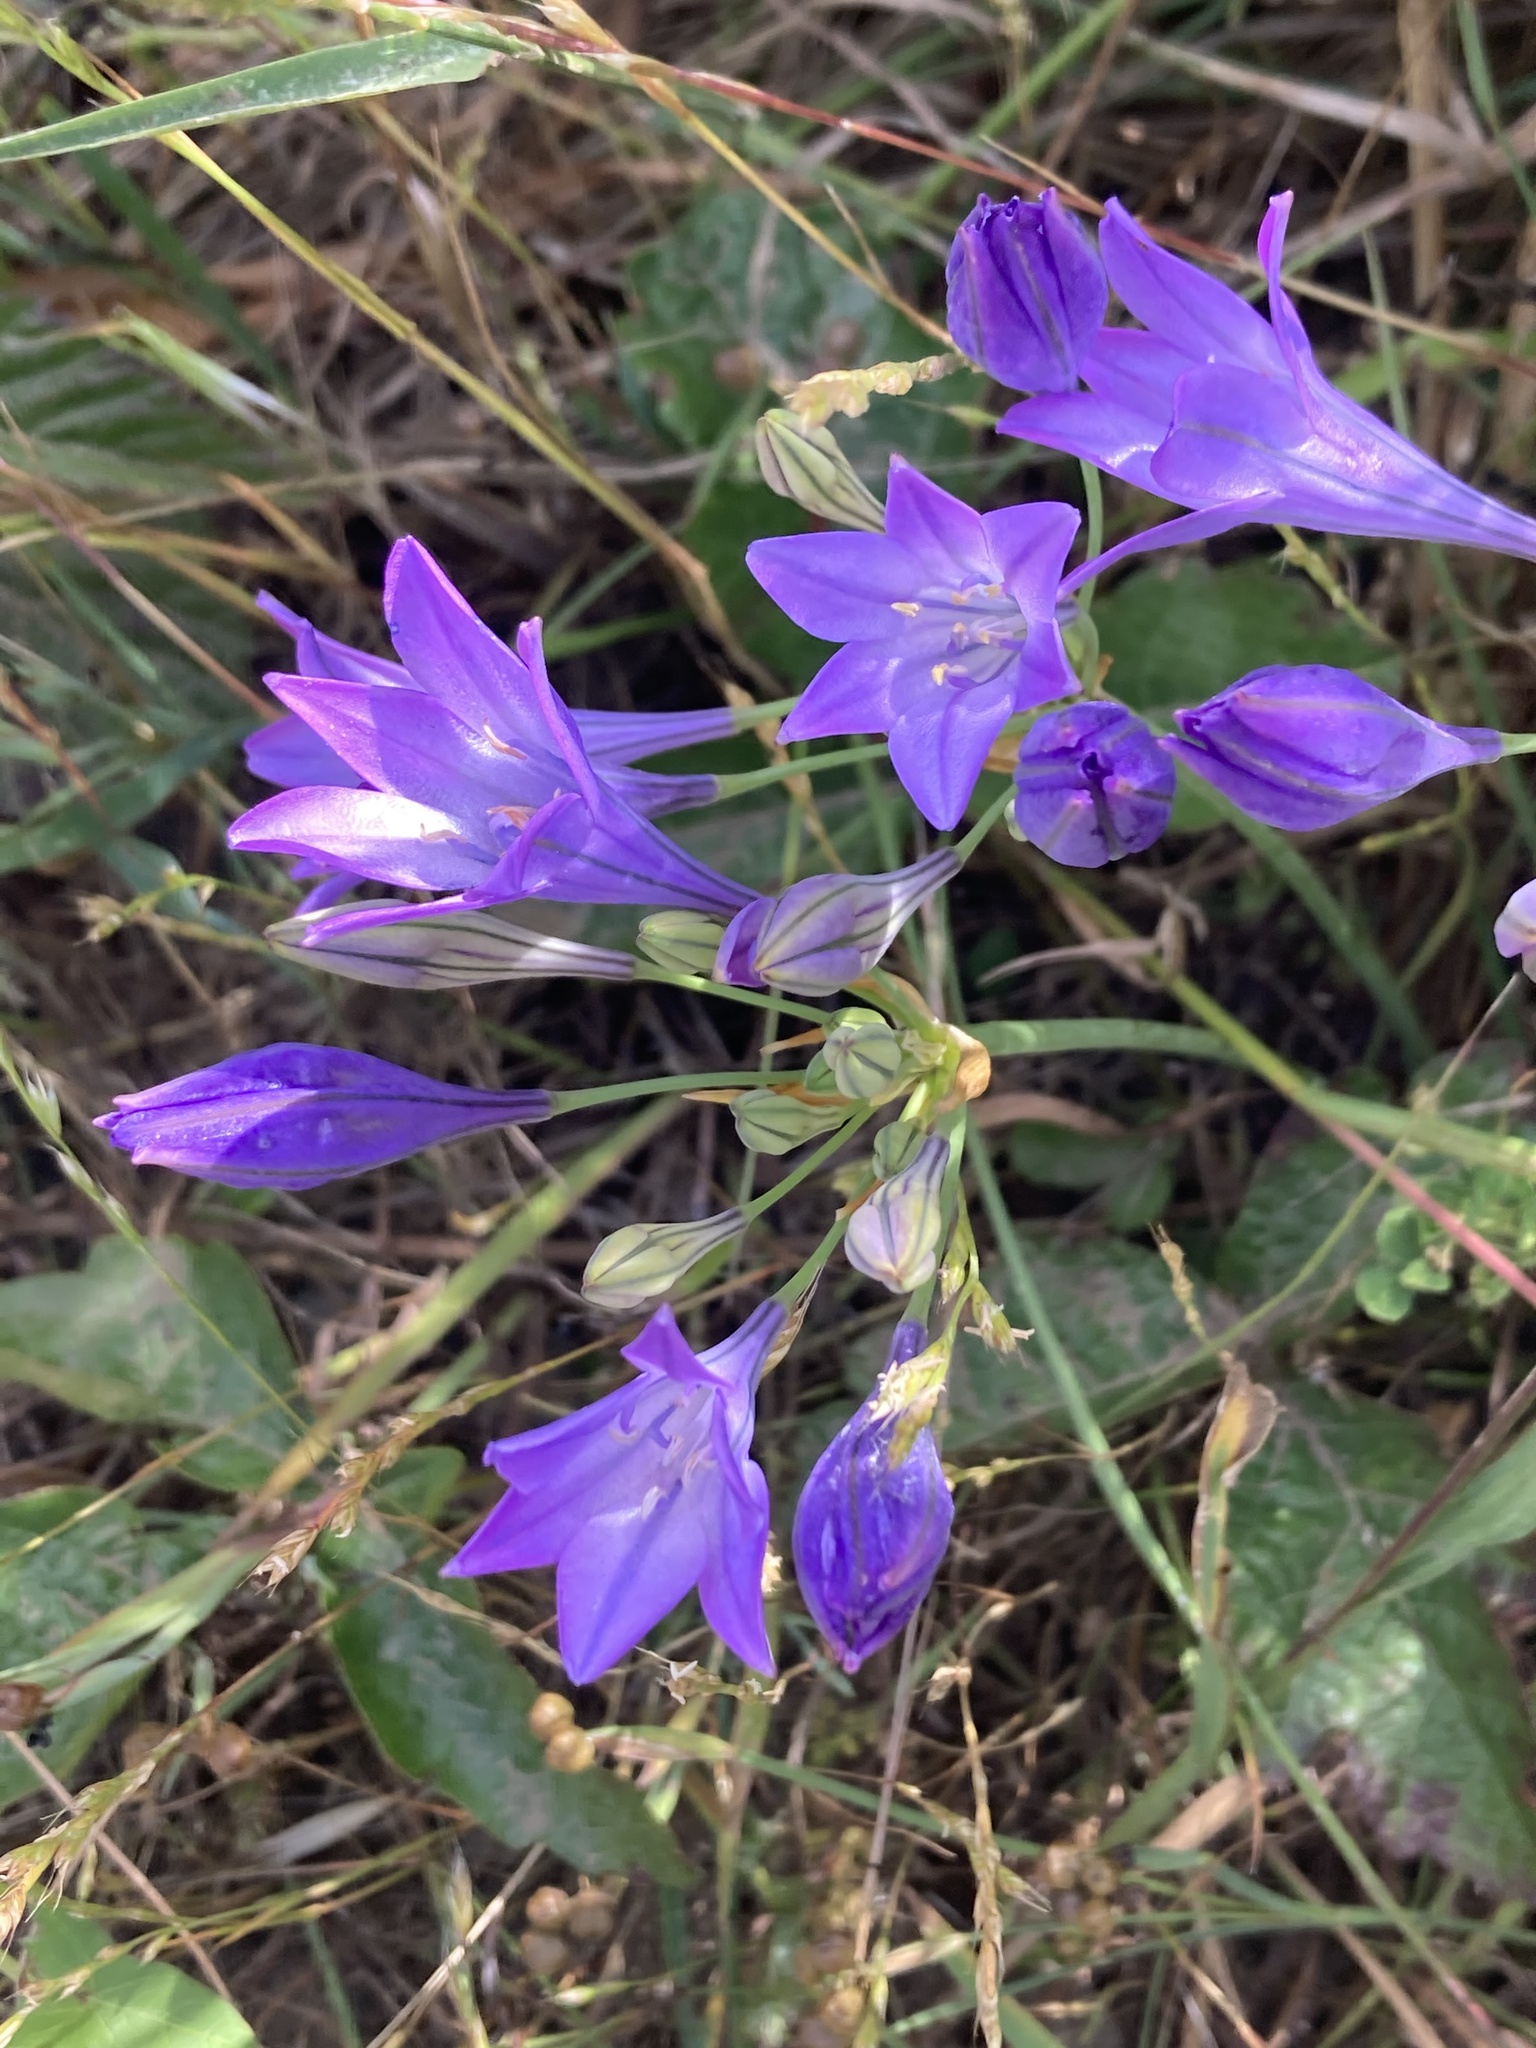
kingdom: Plantae
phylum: Tracheophyta
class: Liliopsida
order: Asparagales
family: Asparagaceae
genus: Triteleia
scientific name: Triteleia laxa
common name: Triplet-lily
